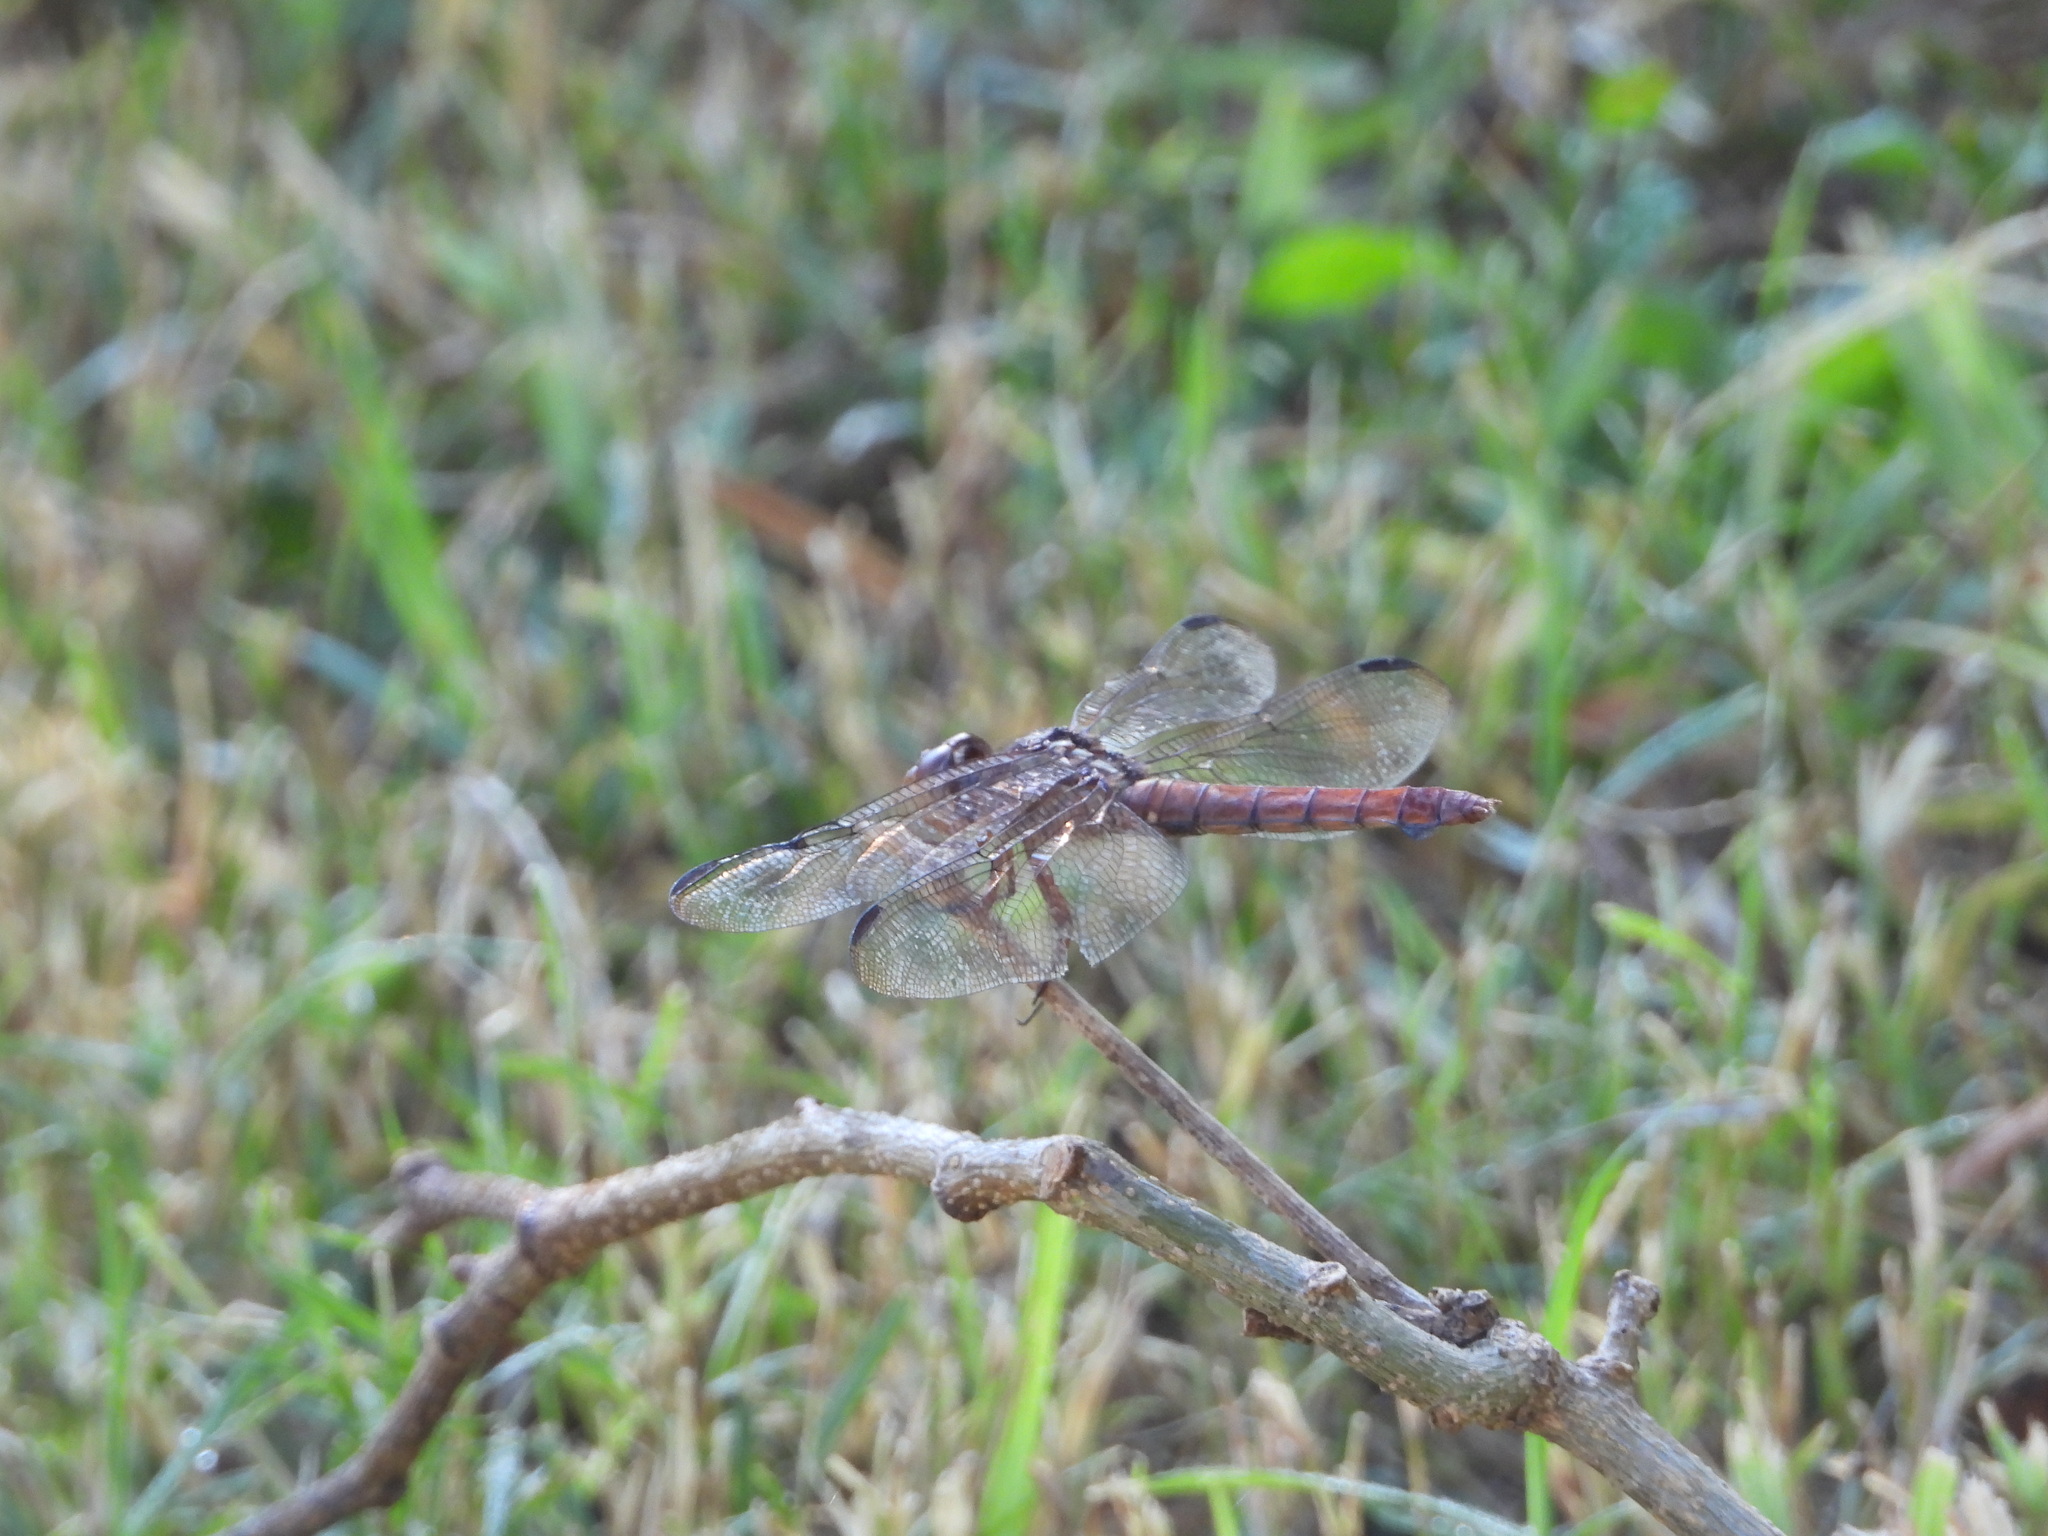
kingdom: Animalia
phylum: Arthropoda
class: Insecta
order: Odonata
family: Libellulidae
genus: Orthemis
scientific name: Orthemis ferruginea
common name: Roseate skimmer
